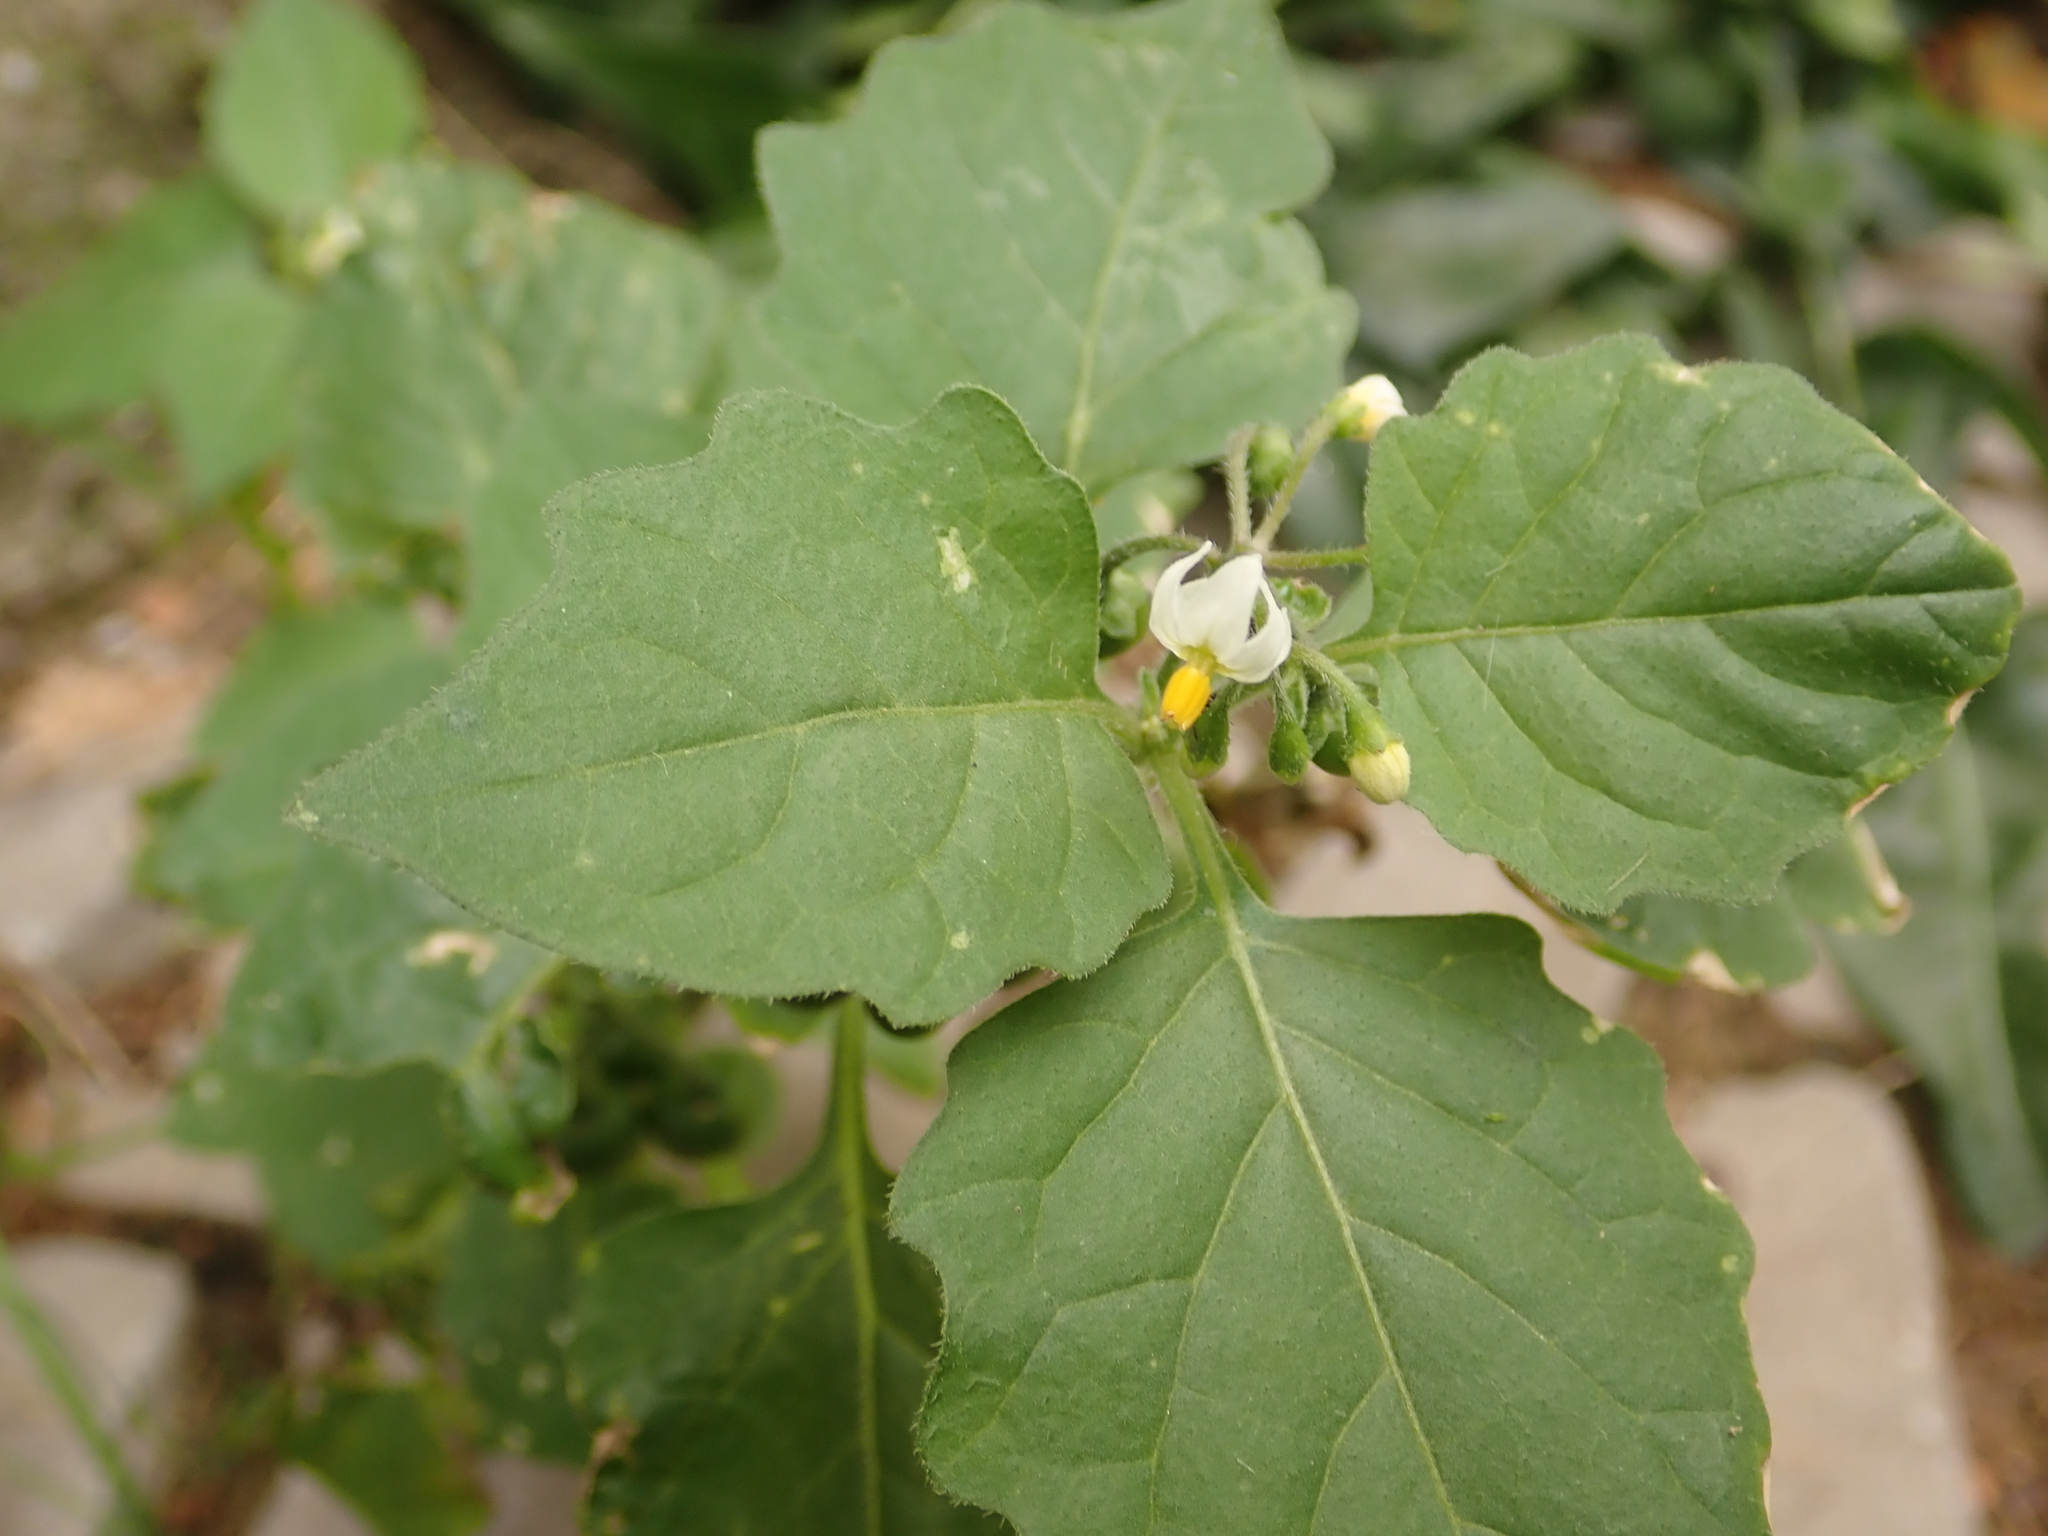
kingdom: Plantae
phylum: Tracheophyta
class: Magnoliopsida
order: Solanales
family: Solanaceae
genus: Solanum
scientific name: Solanum nigrum
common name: Black nightshade
